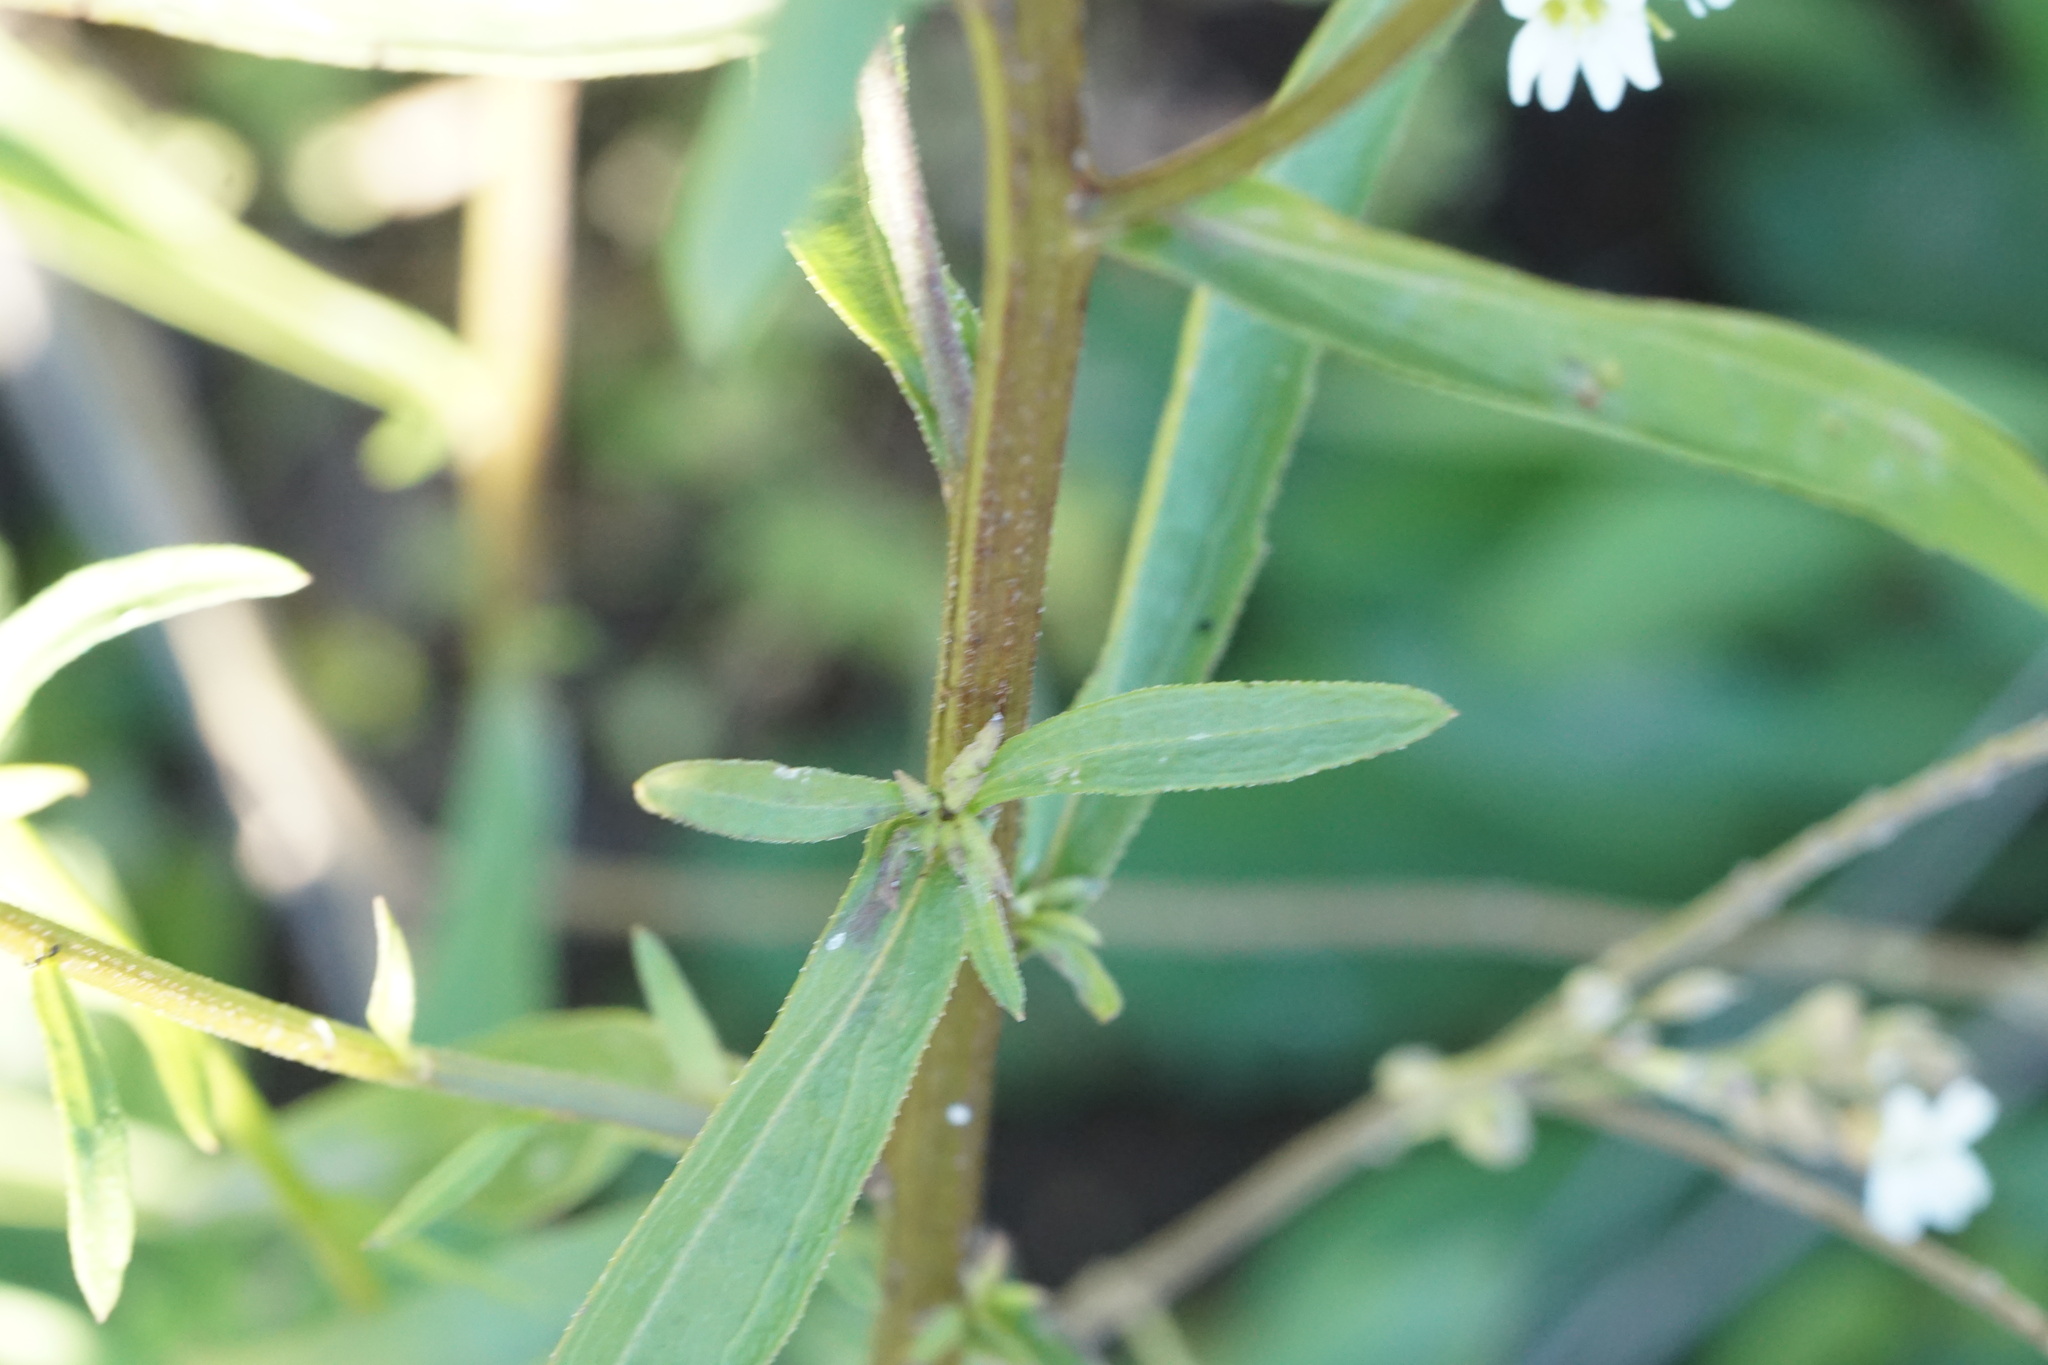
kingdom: Plantae
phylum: Tracheophyta
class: Magnoliopsida
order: Asterales
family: Asteraceae
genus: Erigeron
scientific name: Erigeron strigosus
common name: Common eastern fleabane
